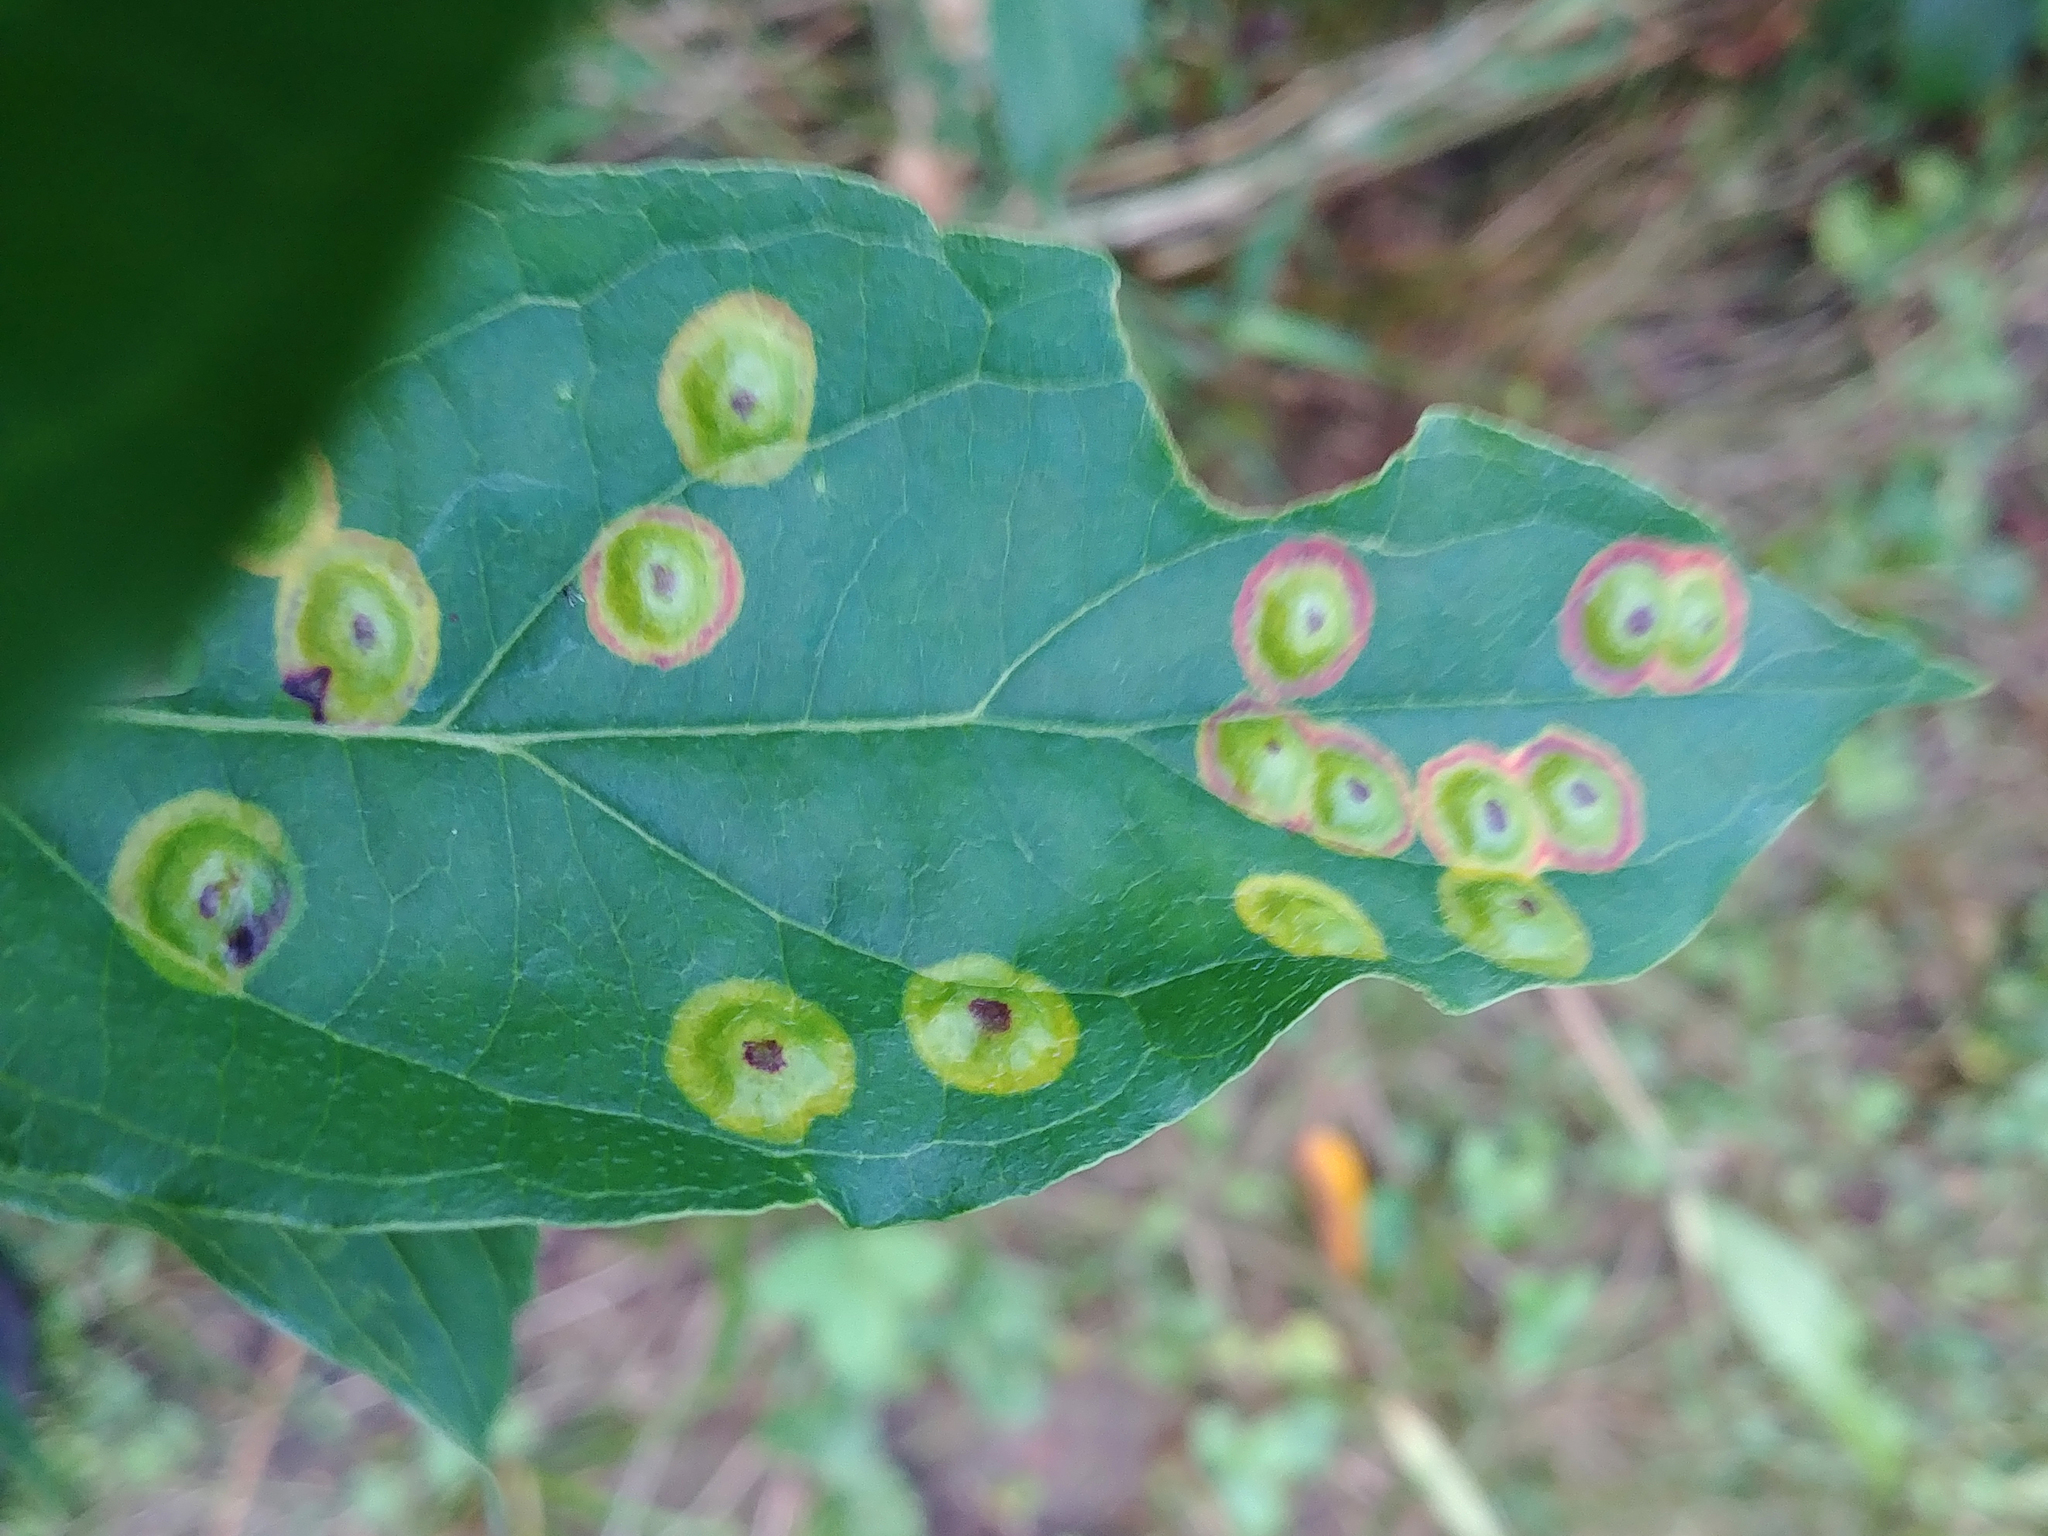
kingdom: Animalia
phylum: Arthropoda
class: Insecta
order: Diptera
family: Cecidomyiidae
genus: Parallelodiplosis
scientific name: Parallelodiplosis subtruncata
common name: Dogwood eyespot gall midge
